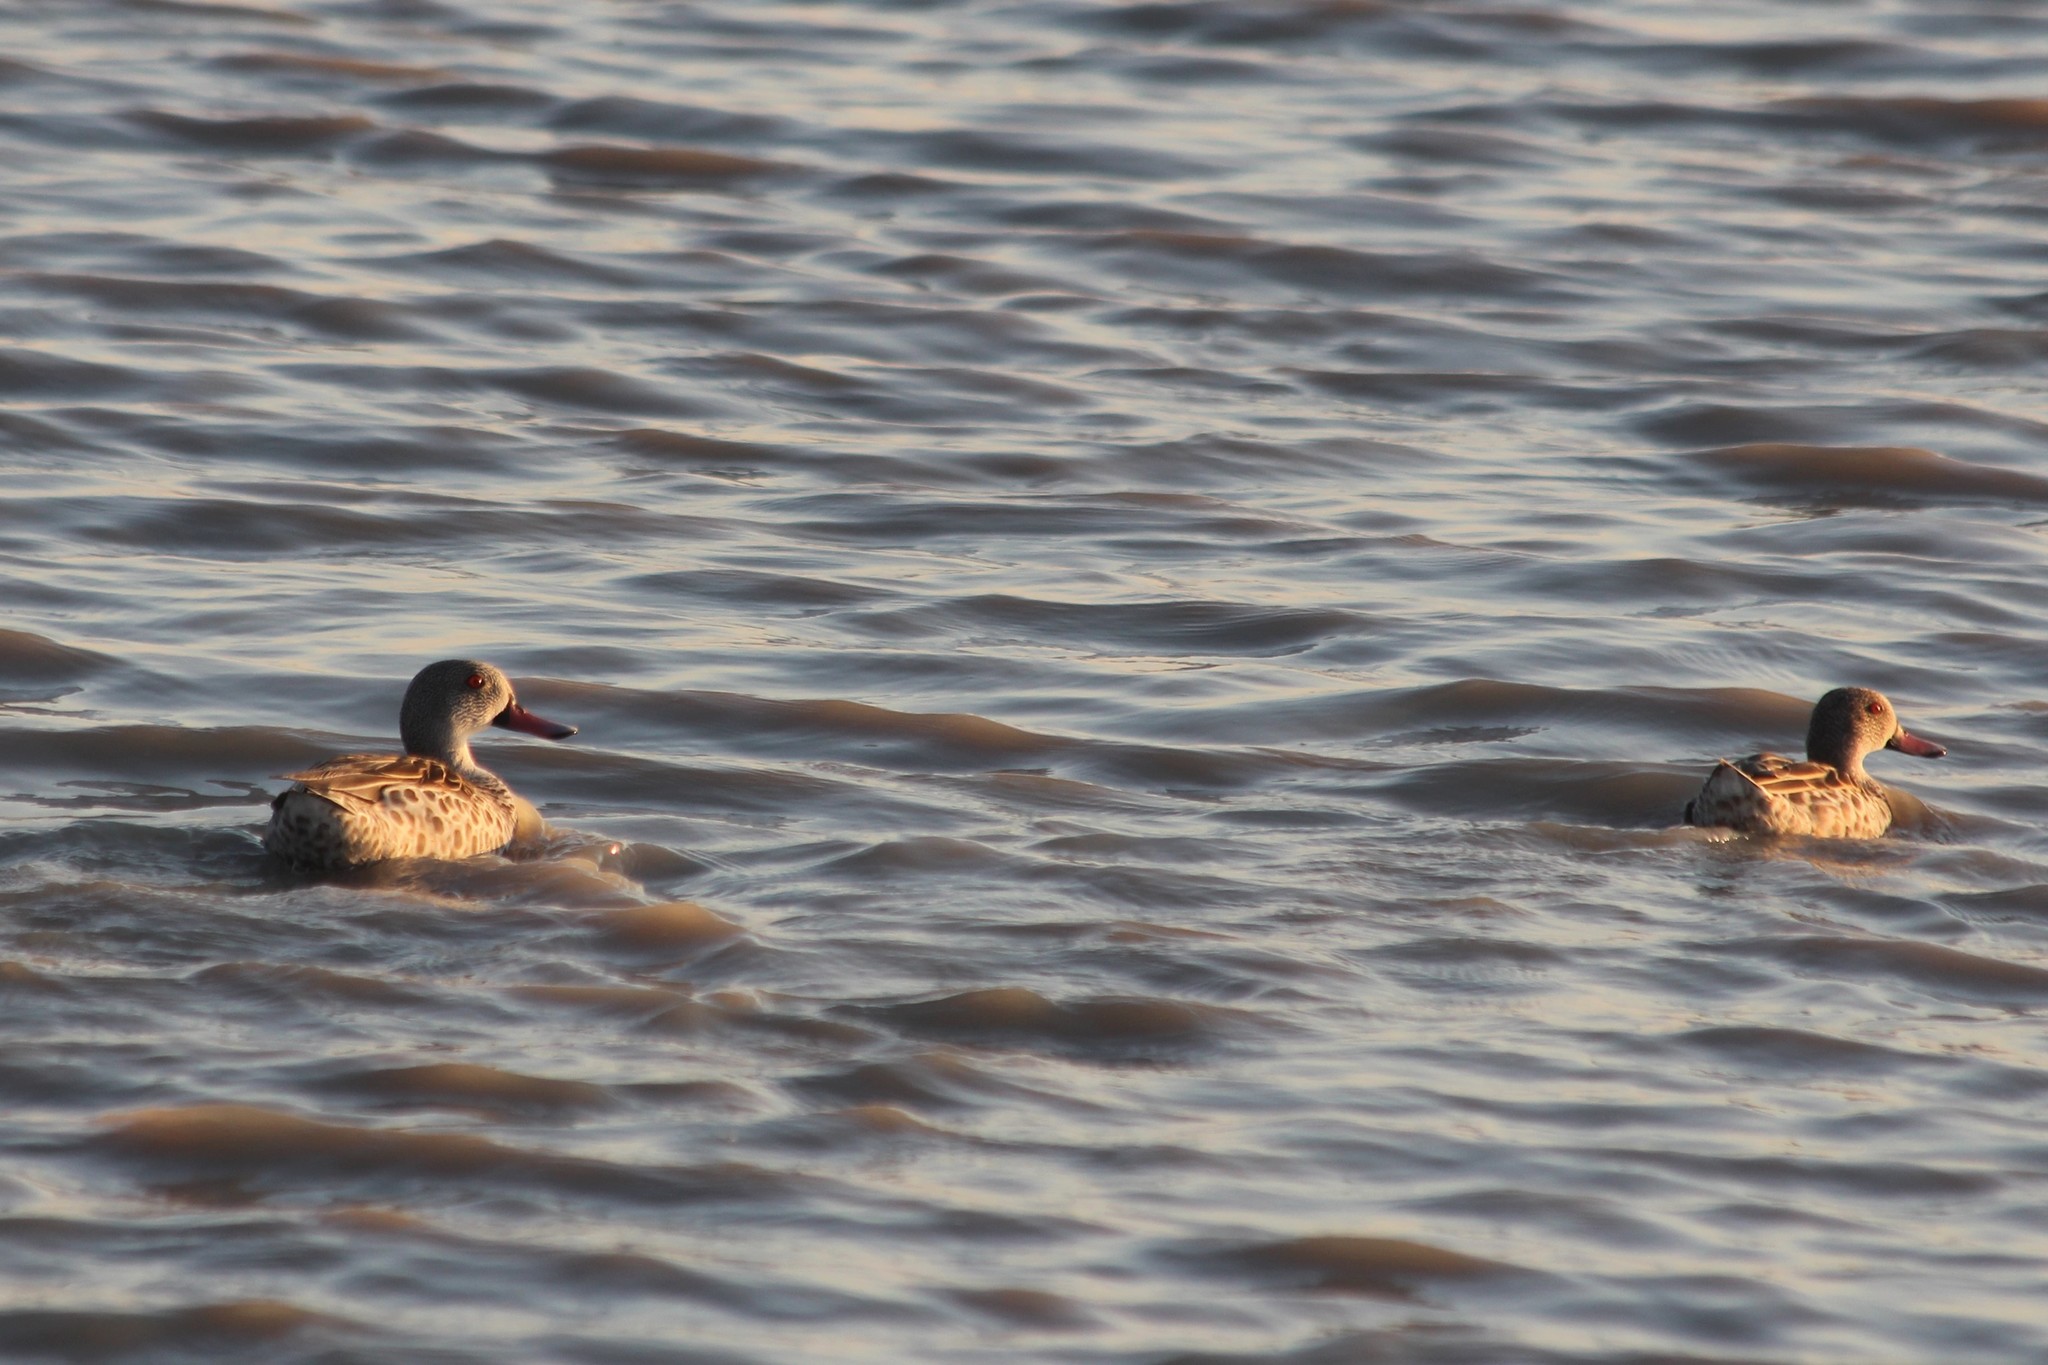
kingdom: Animalia
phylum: Chordata
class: Aves
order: Anseriformes
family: Anatidae
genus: Anas
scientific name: Anas capensis
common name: Cape teal
